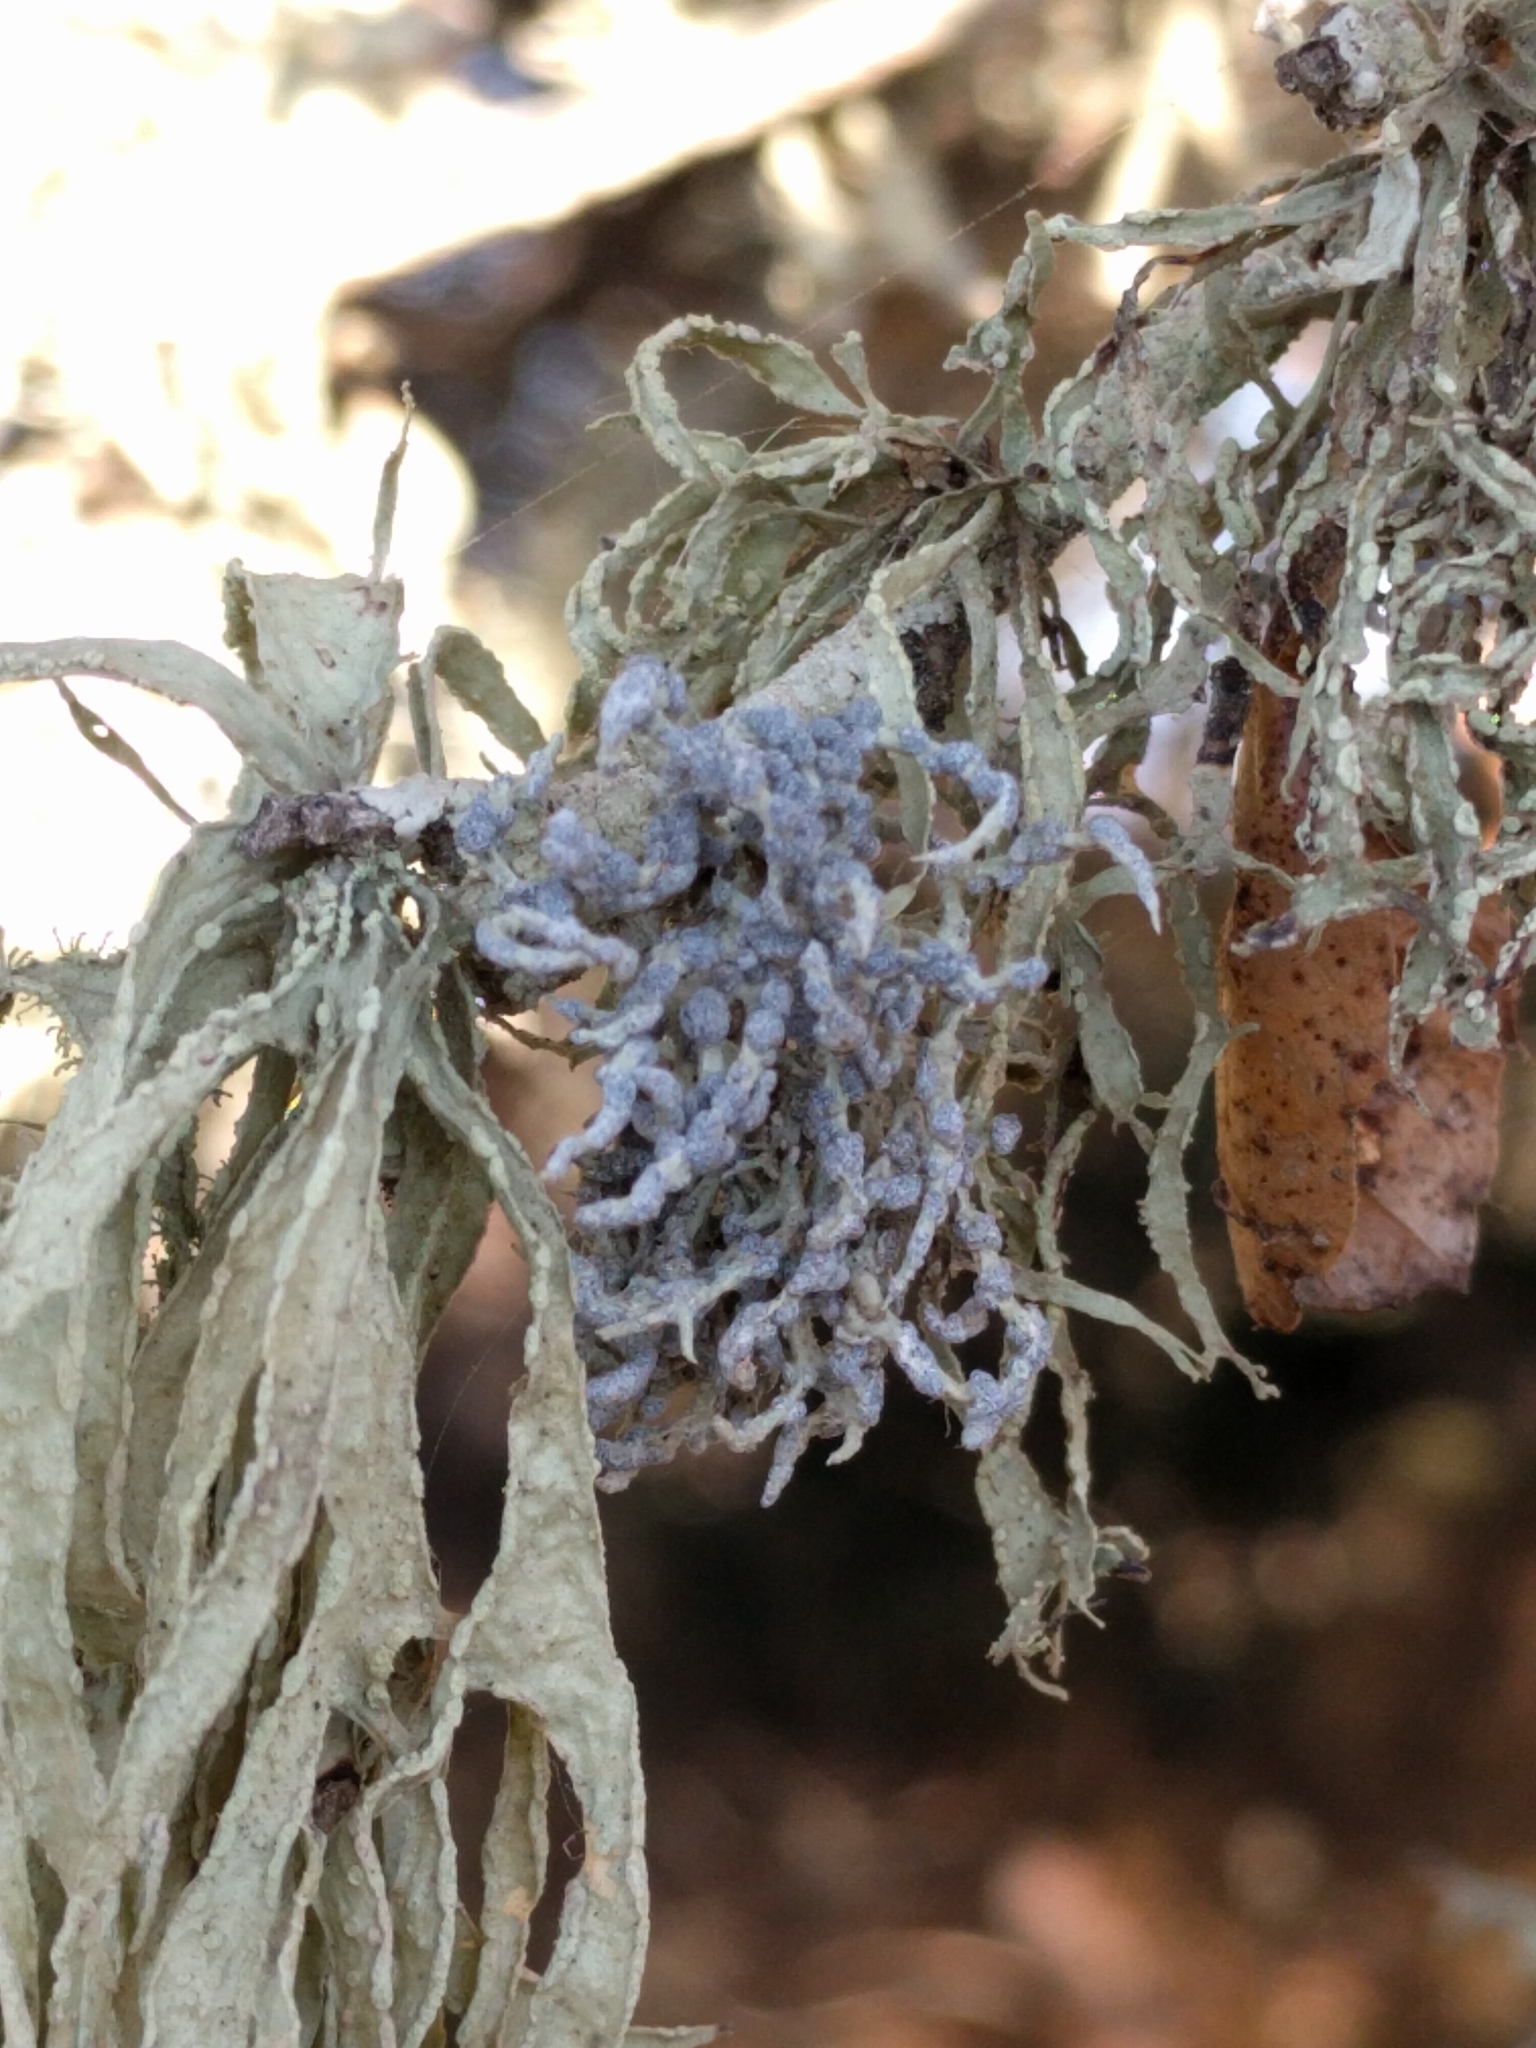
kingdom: Fungi
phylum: Ascomycota
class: Lecanoromycetes
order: Lecanorales
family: Ramalinaceae
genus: Niebla
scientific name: Niebla cephalota
